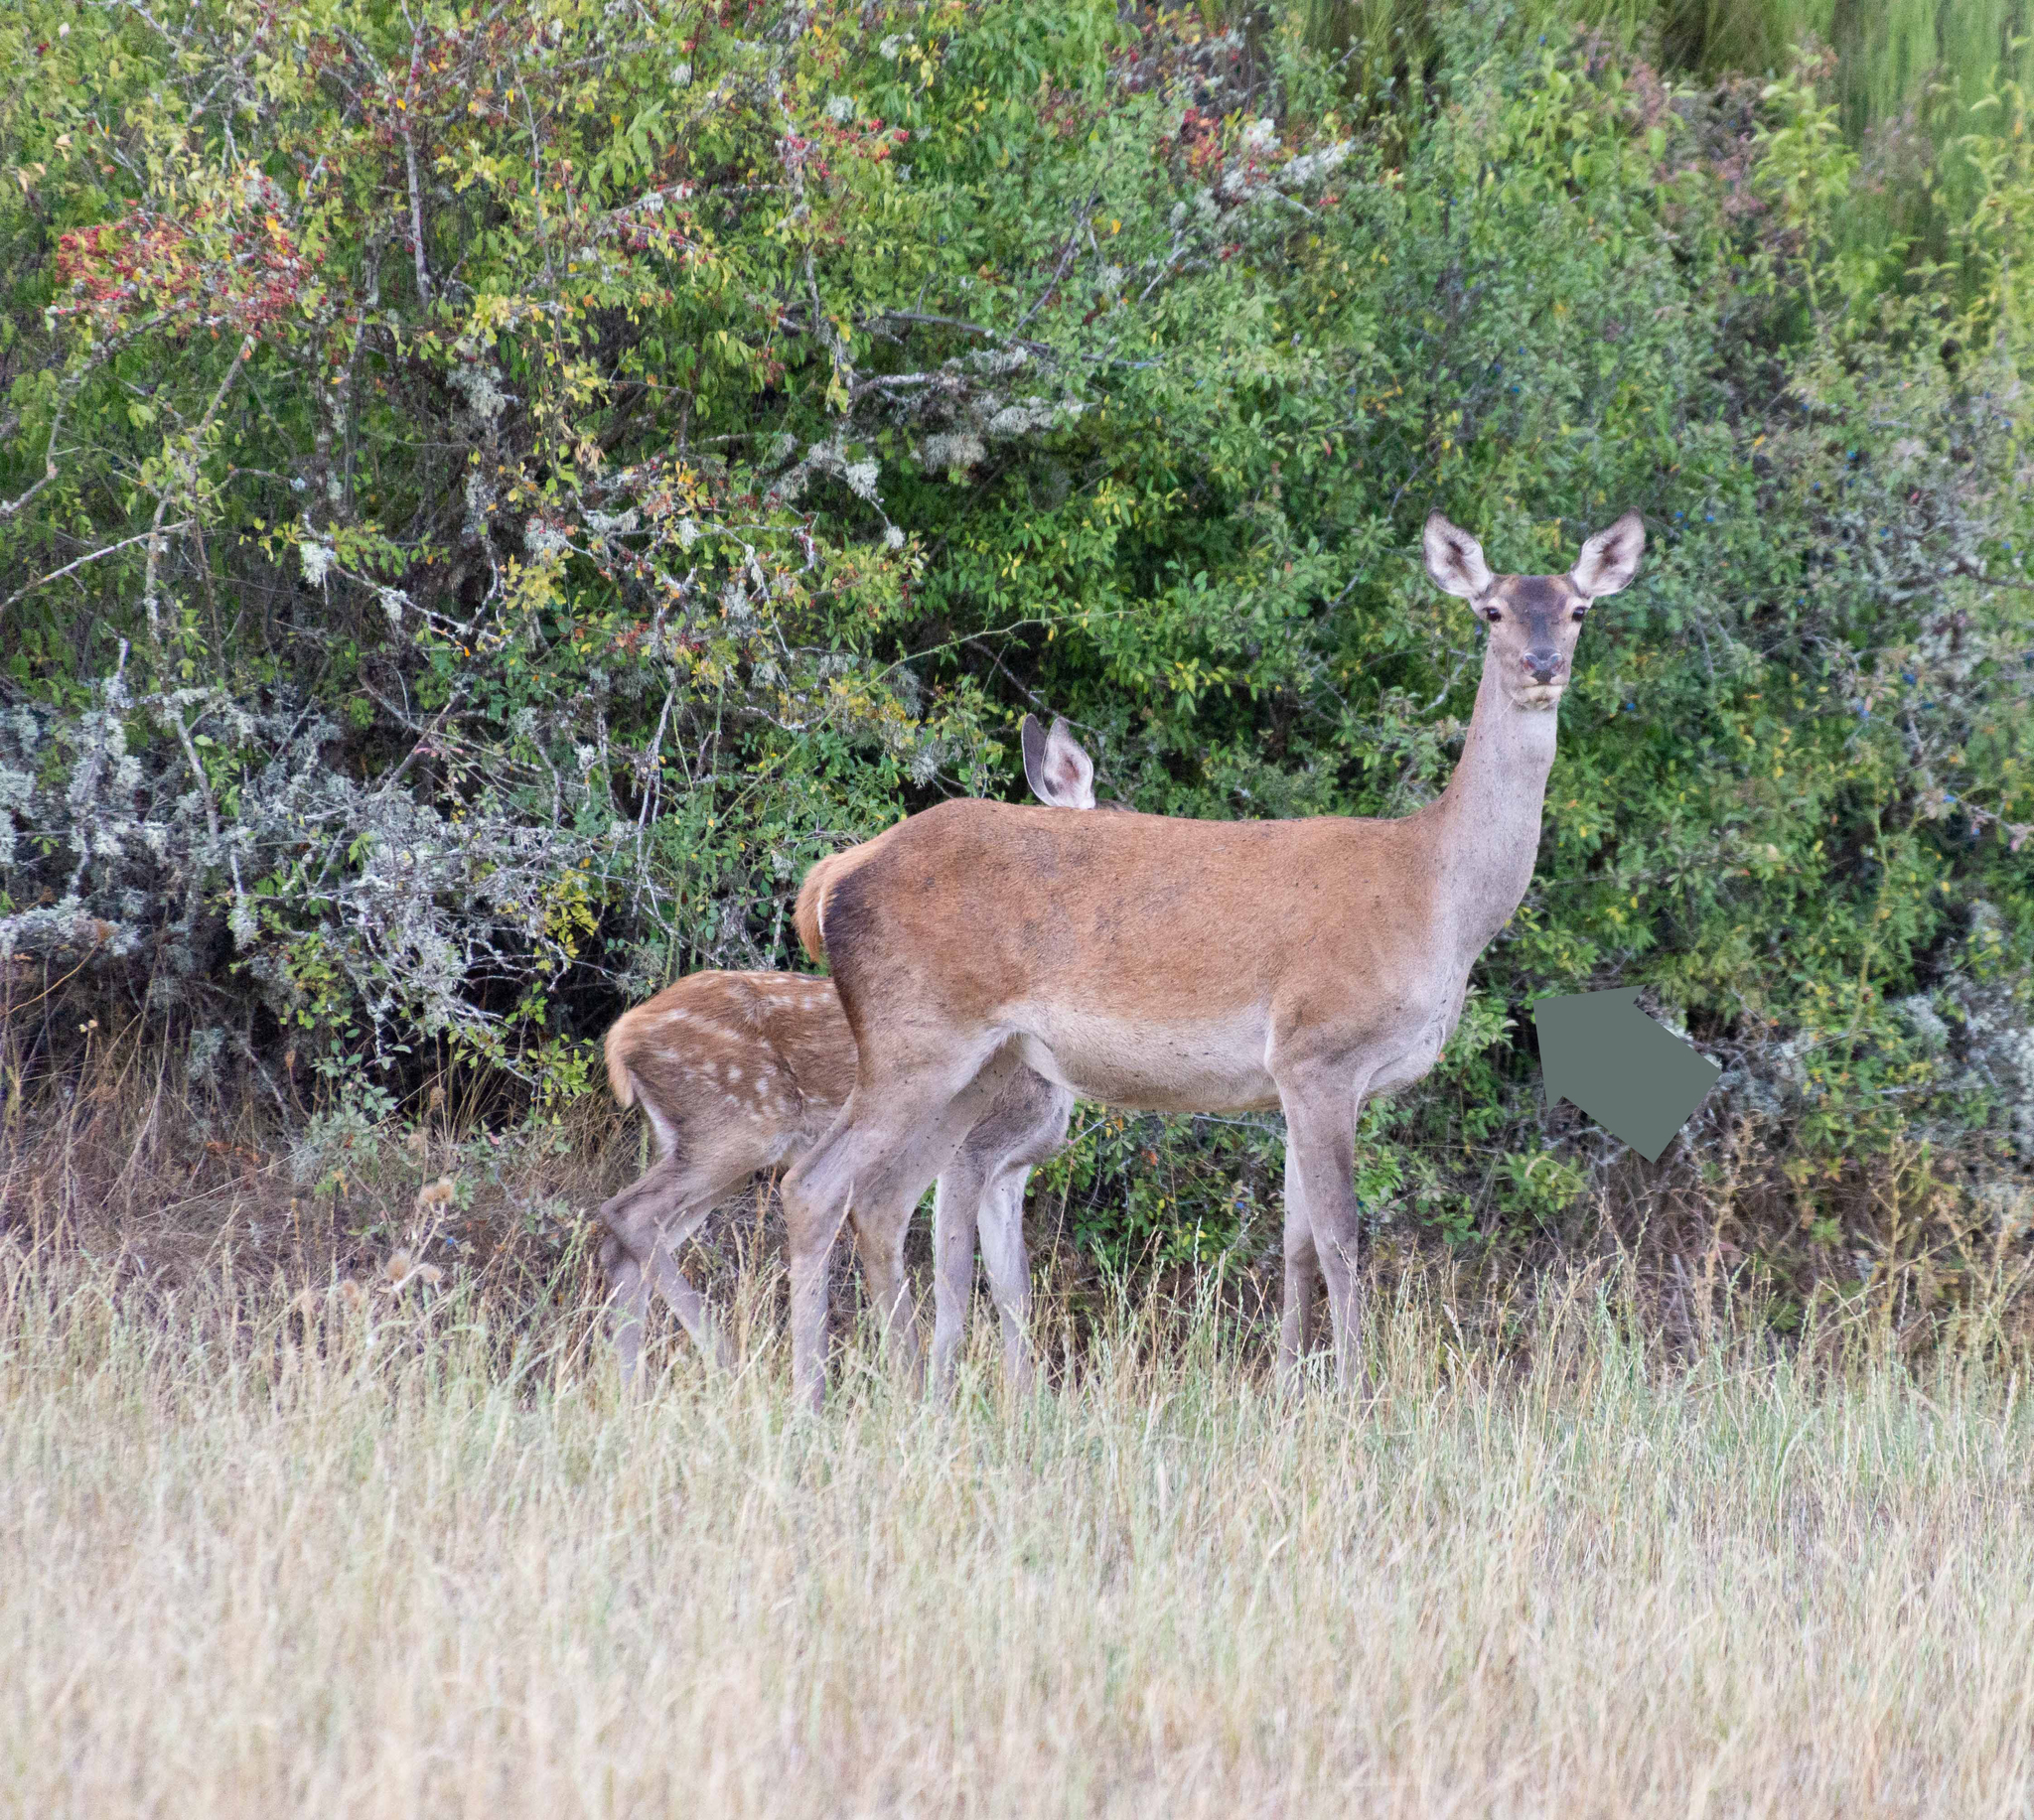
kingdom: Animalia
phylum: Chordata
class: Mammalia
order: Artiodactyla
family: Cervidae
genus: Cervus
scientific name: Cervus elaphus
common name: Red deer
